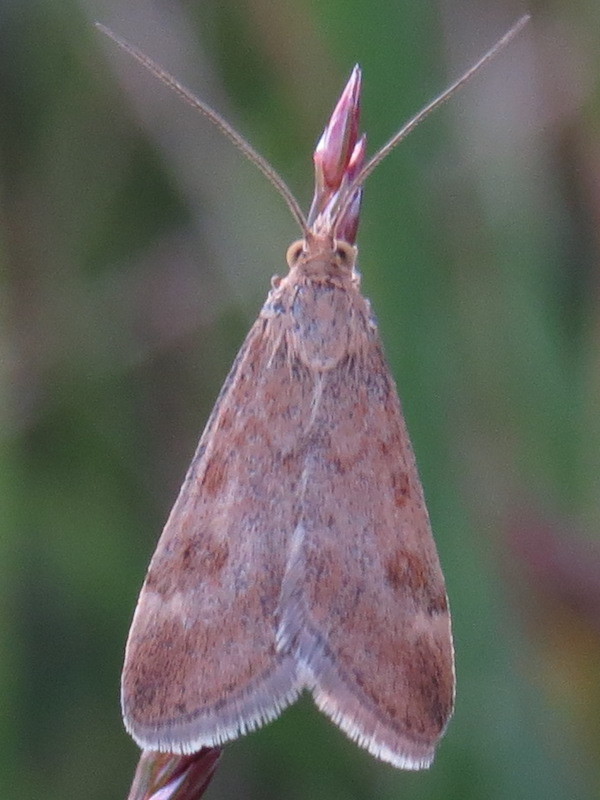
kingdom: Animalia
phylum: Arthropoda
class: Insecta
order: Lepidoptera
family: Crambidae
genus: Pyrausta
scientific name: Pyrausta despicata
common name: Straw-barred pearl
